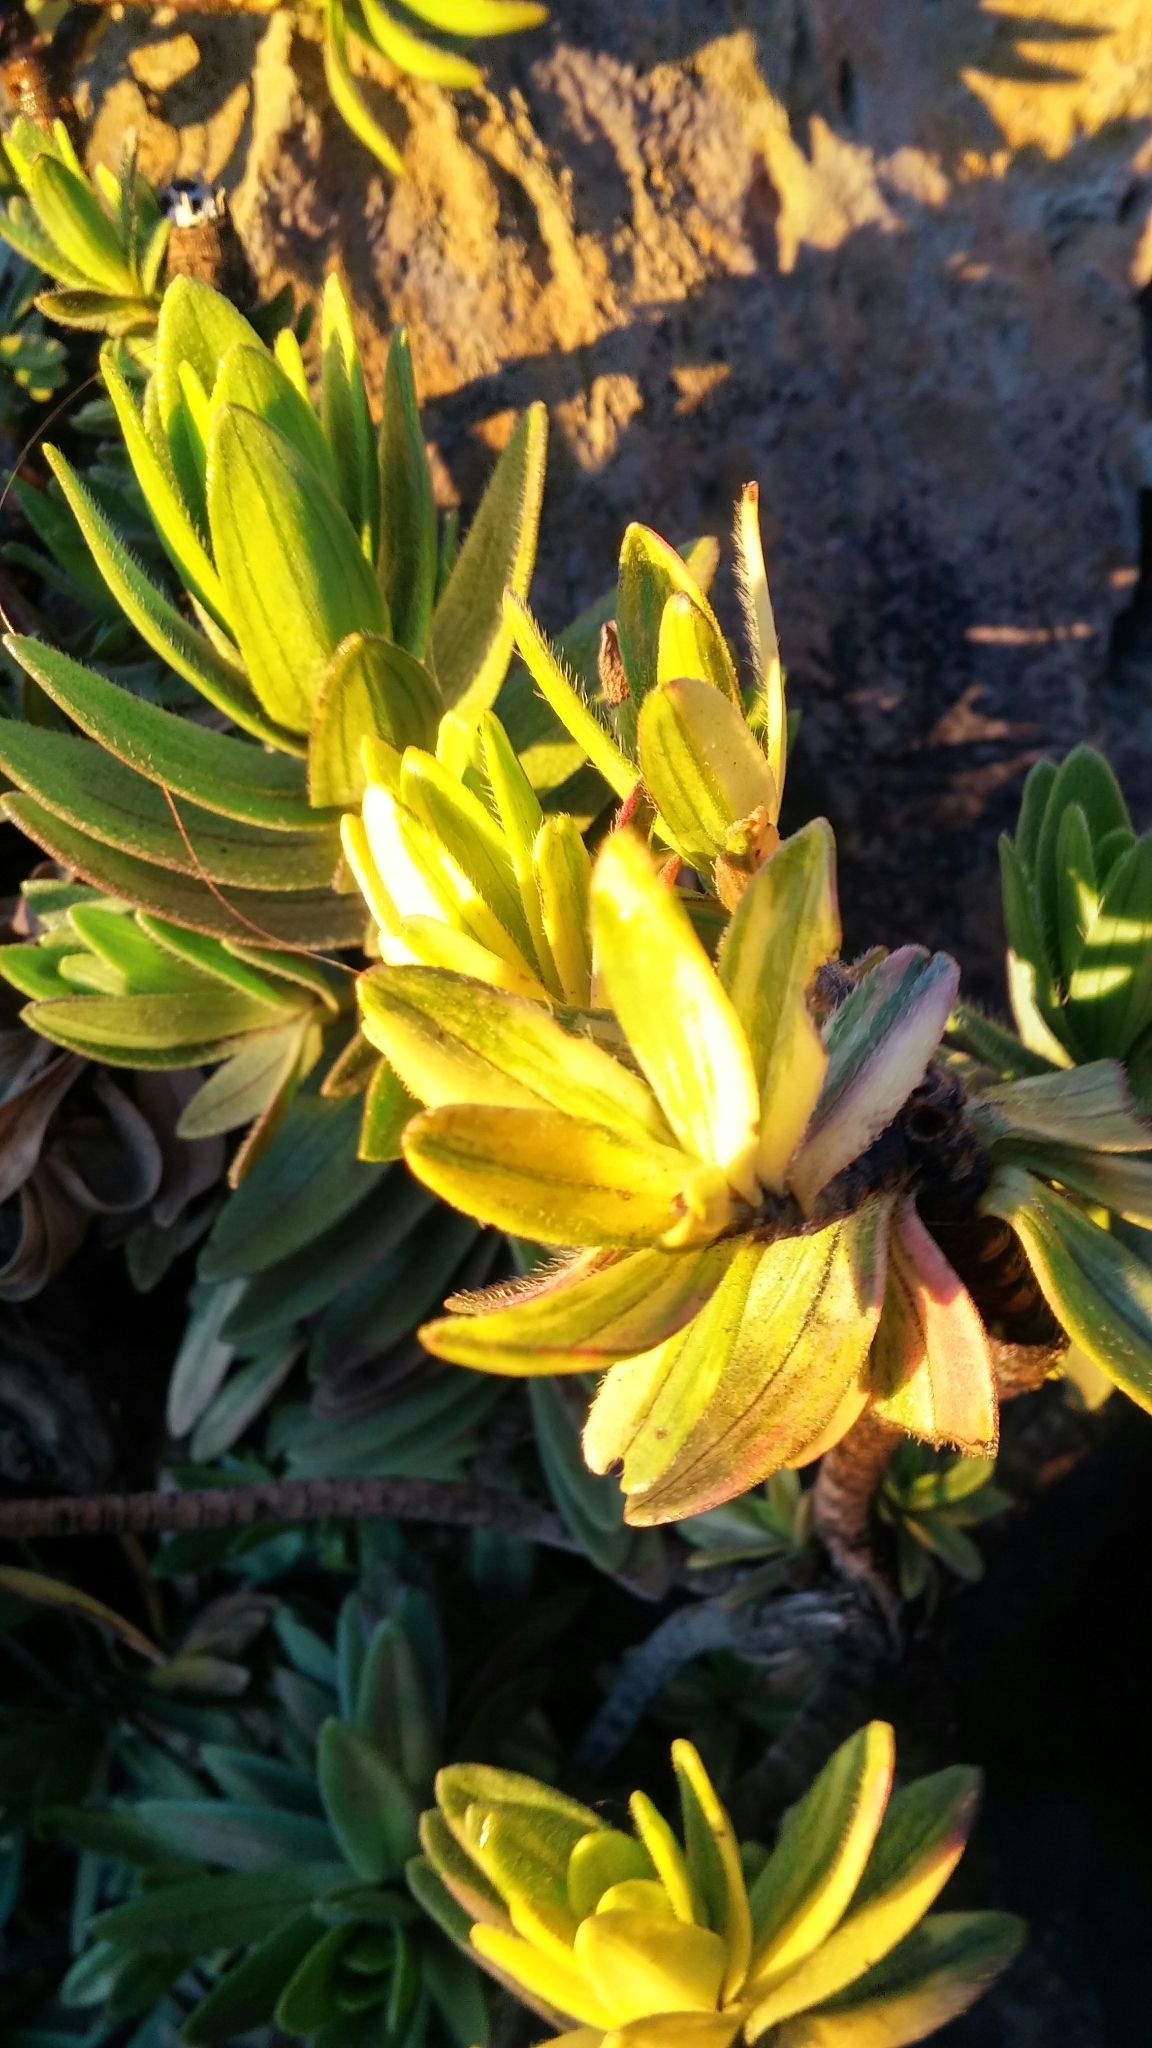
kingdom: Plantae
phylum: Tracheophyta
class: Magnoliopsida
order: Asterales
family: Asteraceae
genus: Dubautia
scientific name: Dubautia menziesii
